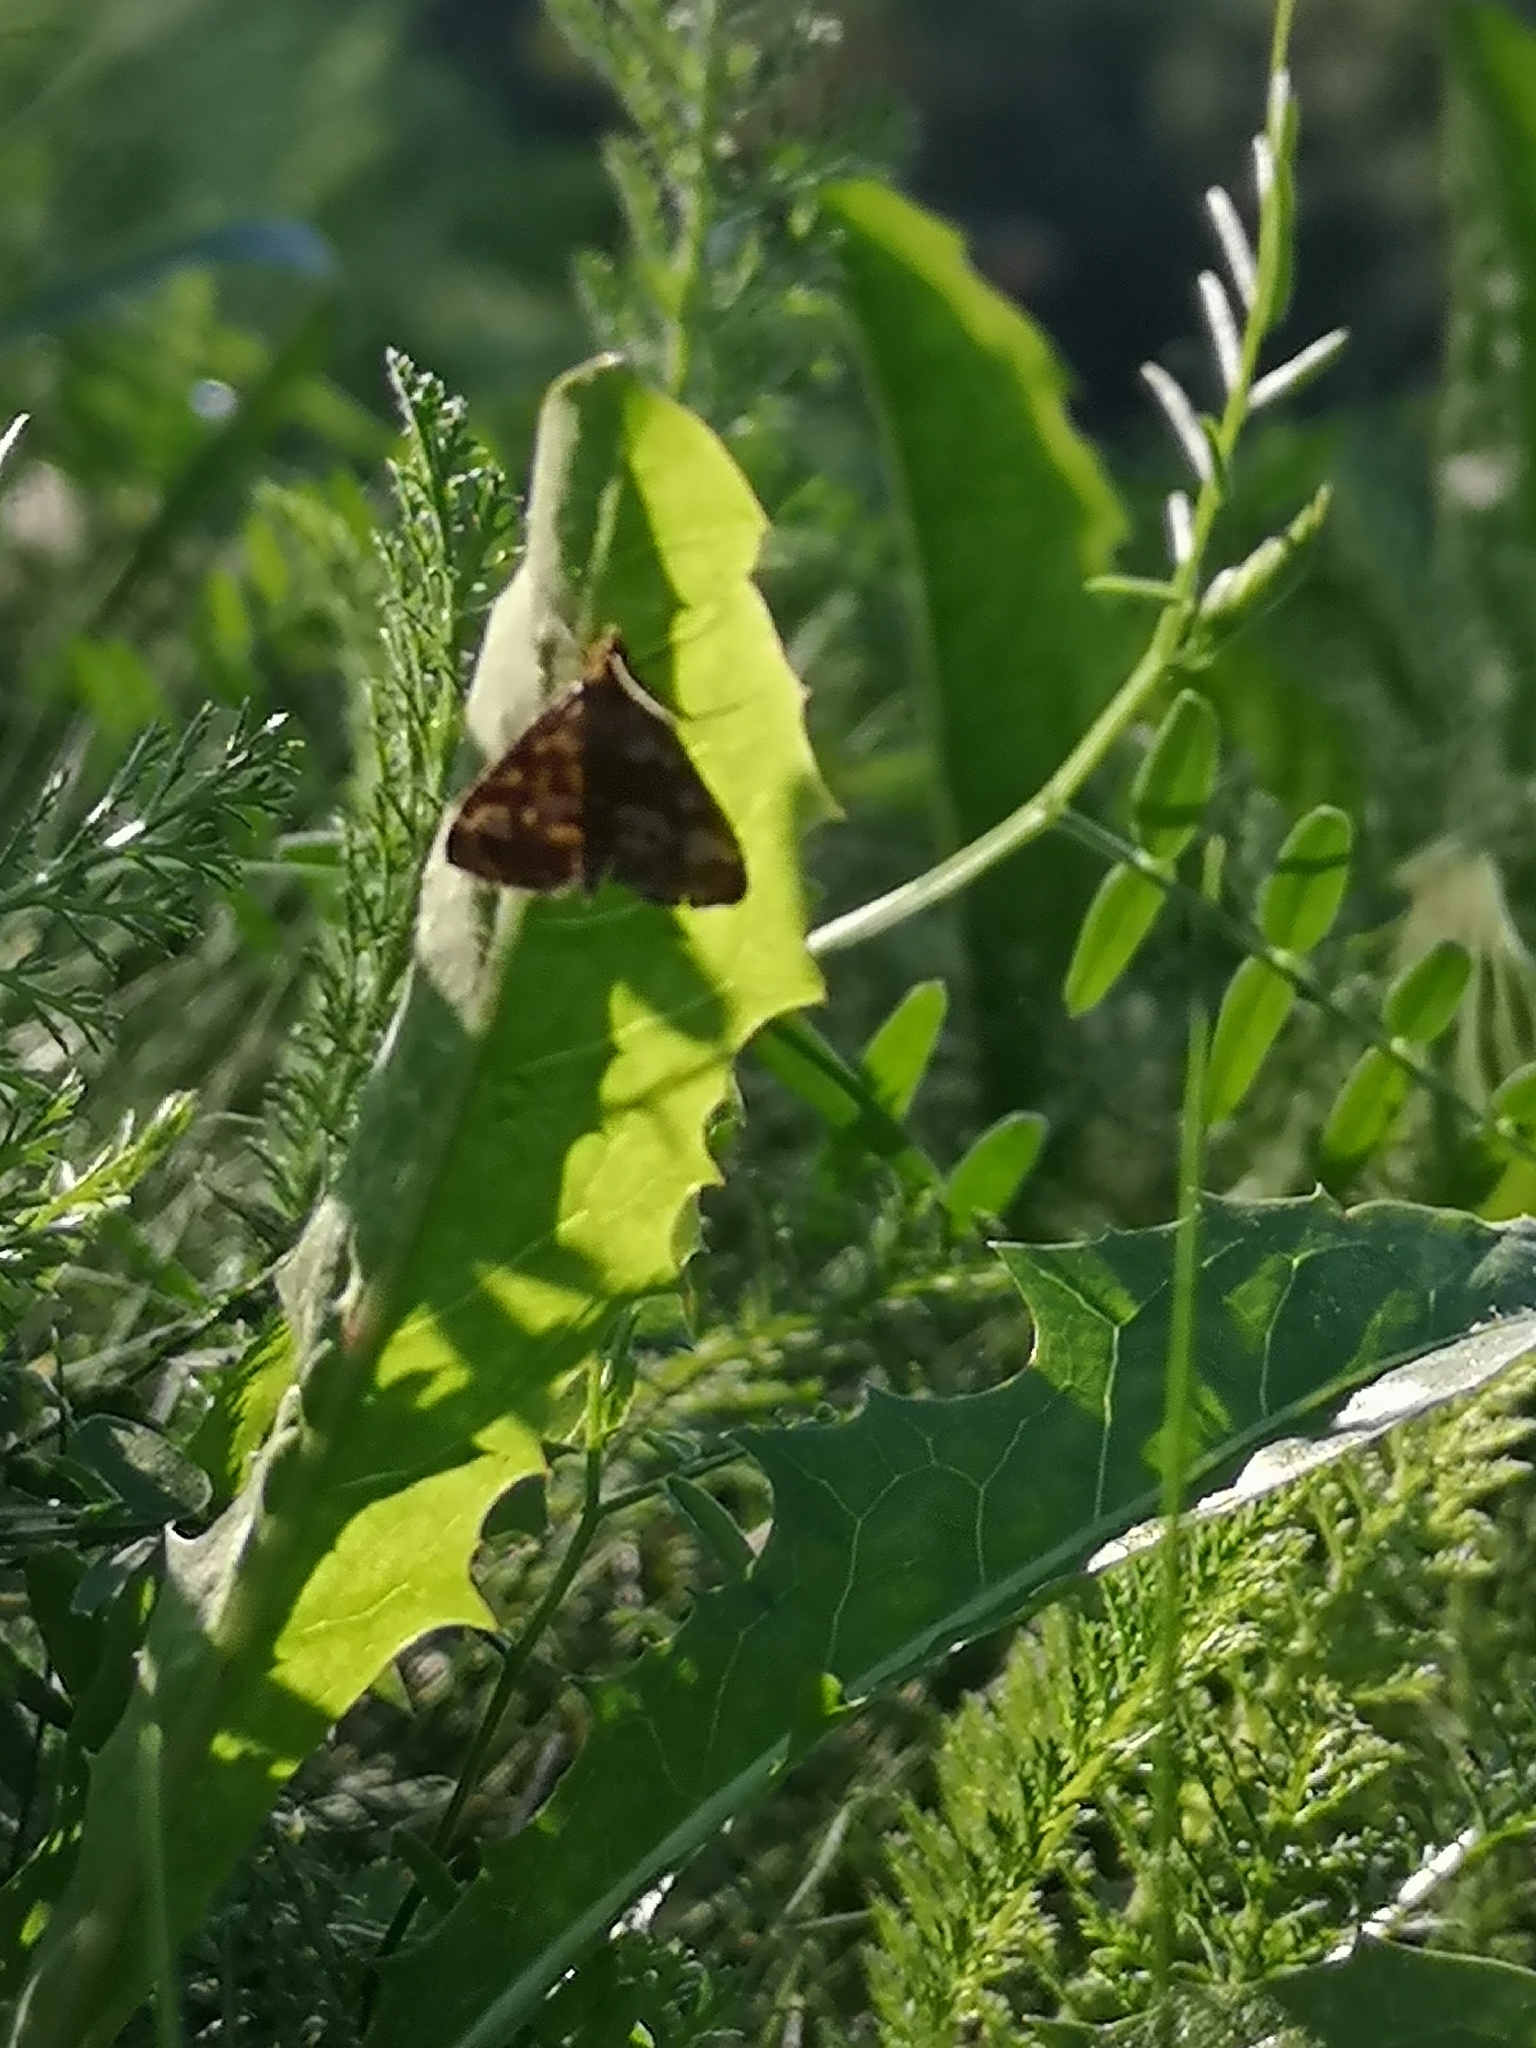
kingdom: Animalia
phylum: Arthropoda
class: Insecta
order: Lepidoptera
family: Crambidae
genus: Pyrausta
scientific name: Pyrausta purpuralis
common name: Common purple & gold
